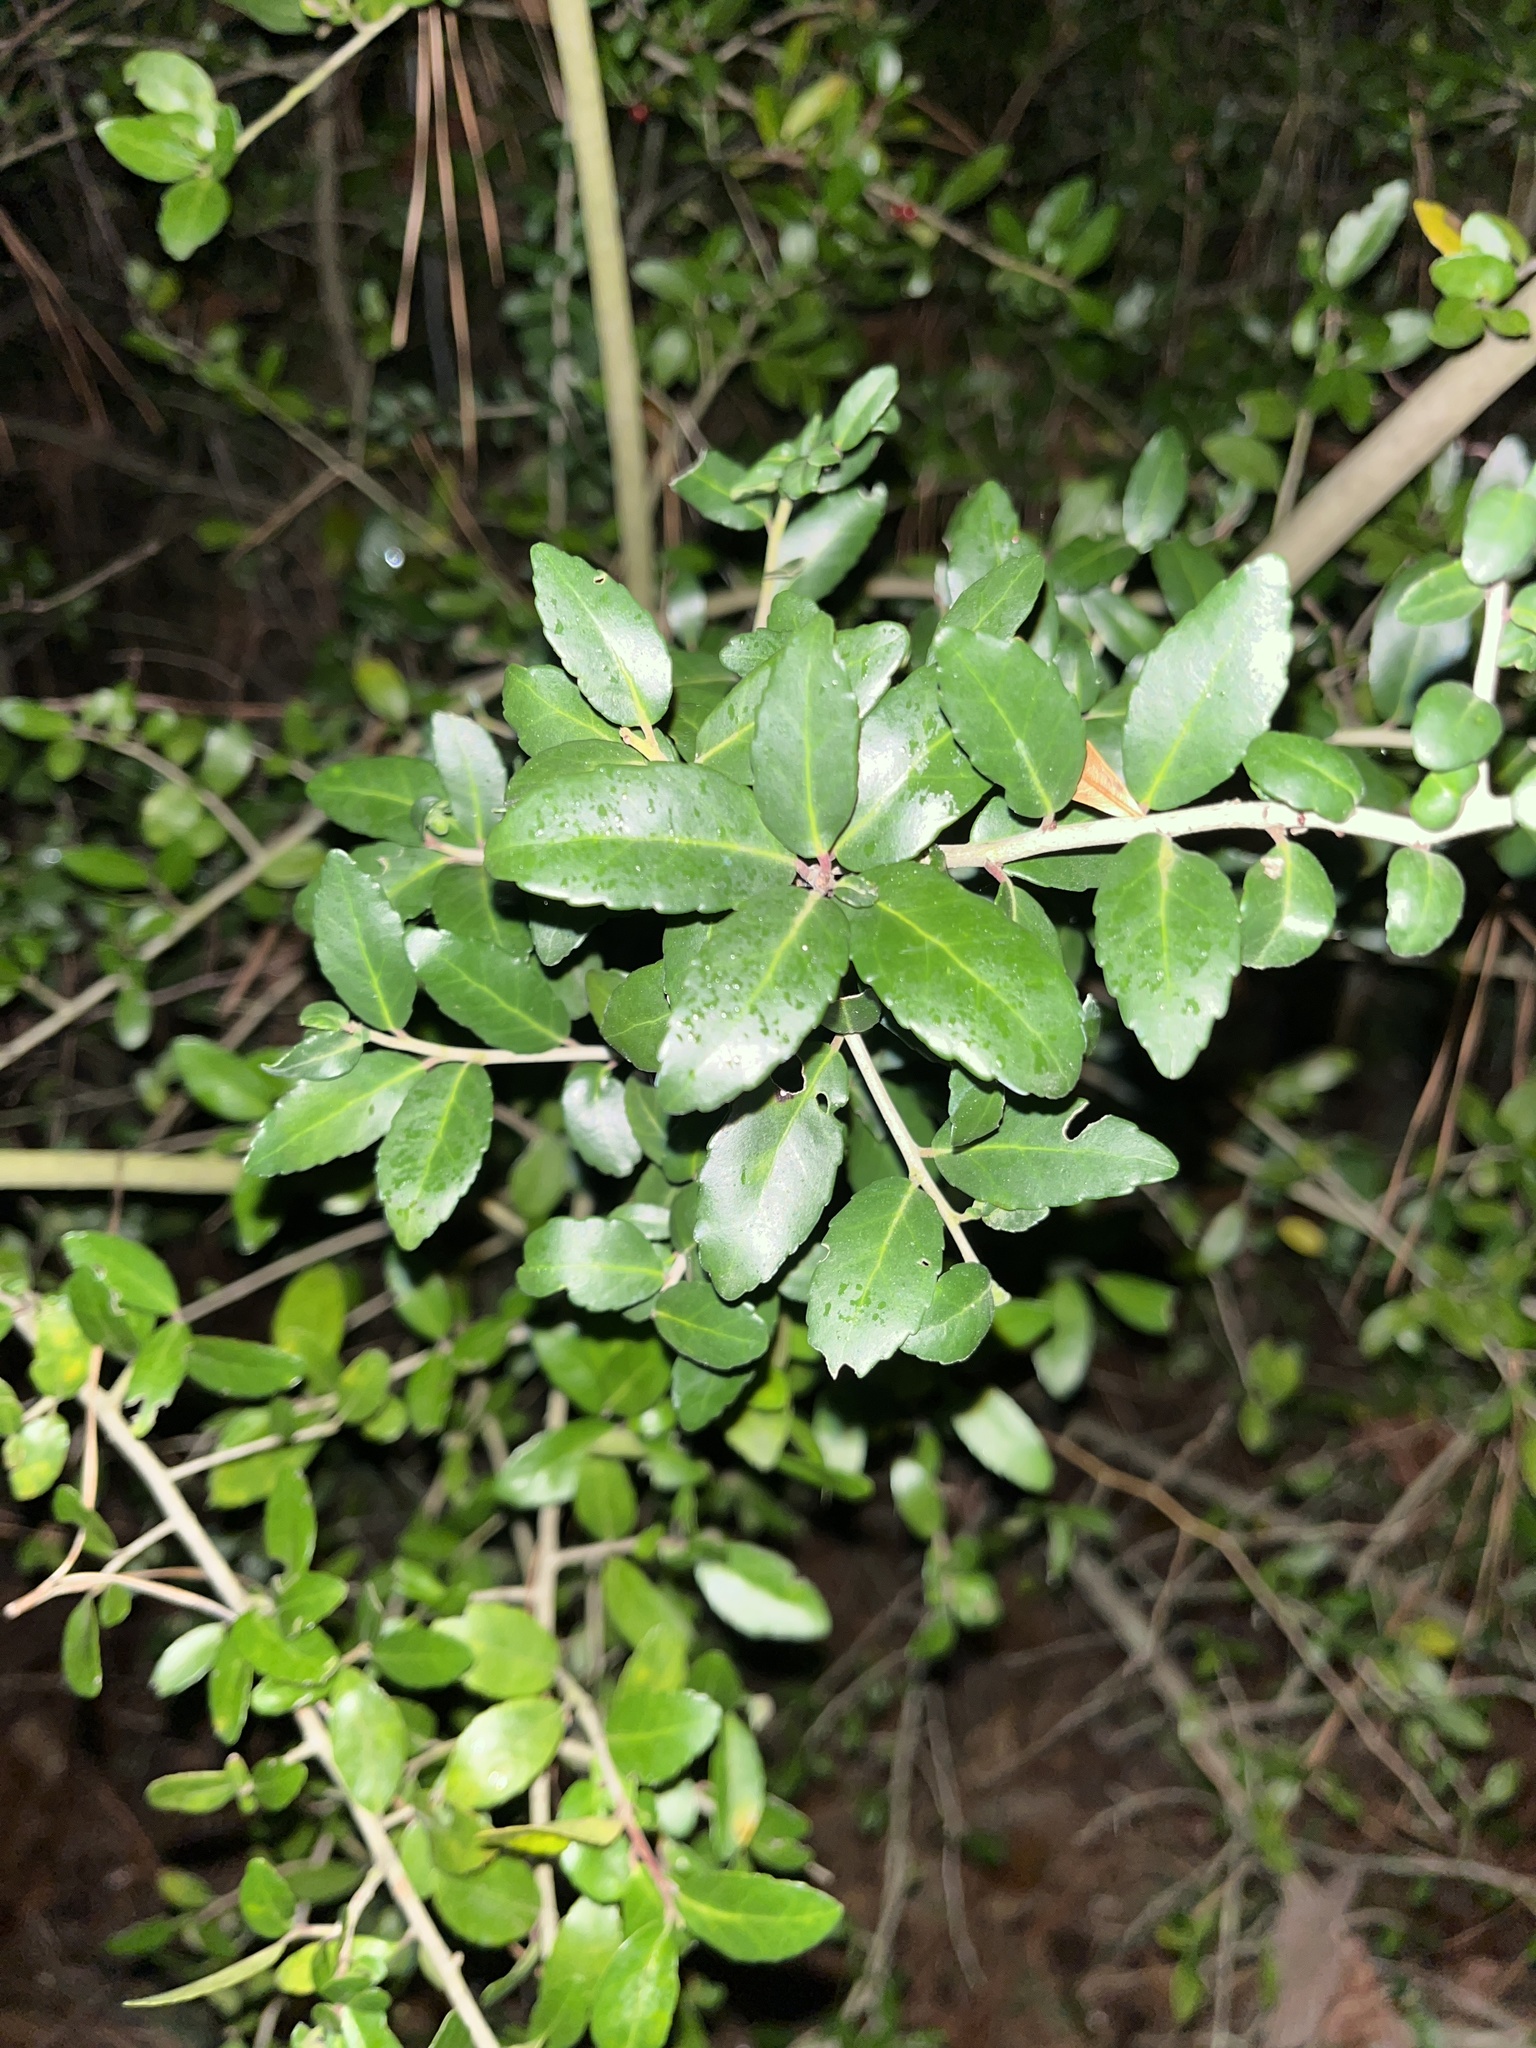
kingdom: Plantae
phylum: Tracheophyta
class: Magnoliopsida
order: Aquifoliales
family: Aquifoliaceae
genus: Ilex
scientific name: Ilex vomitoria
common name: Yaupon holly
